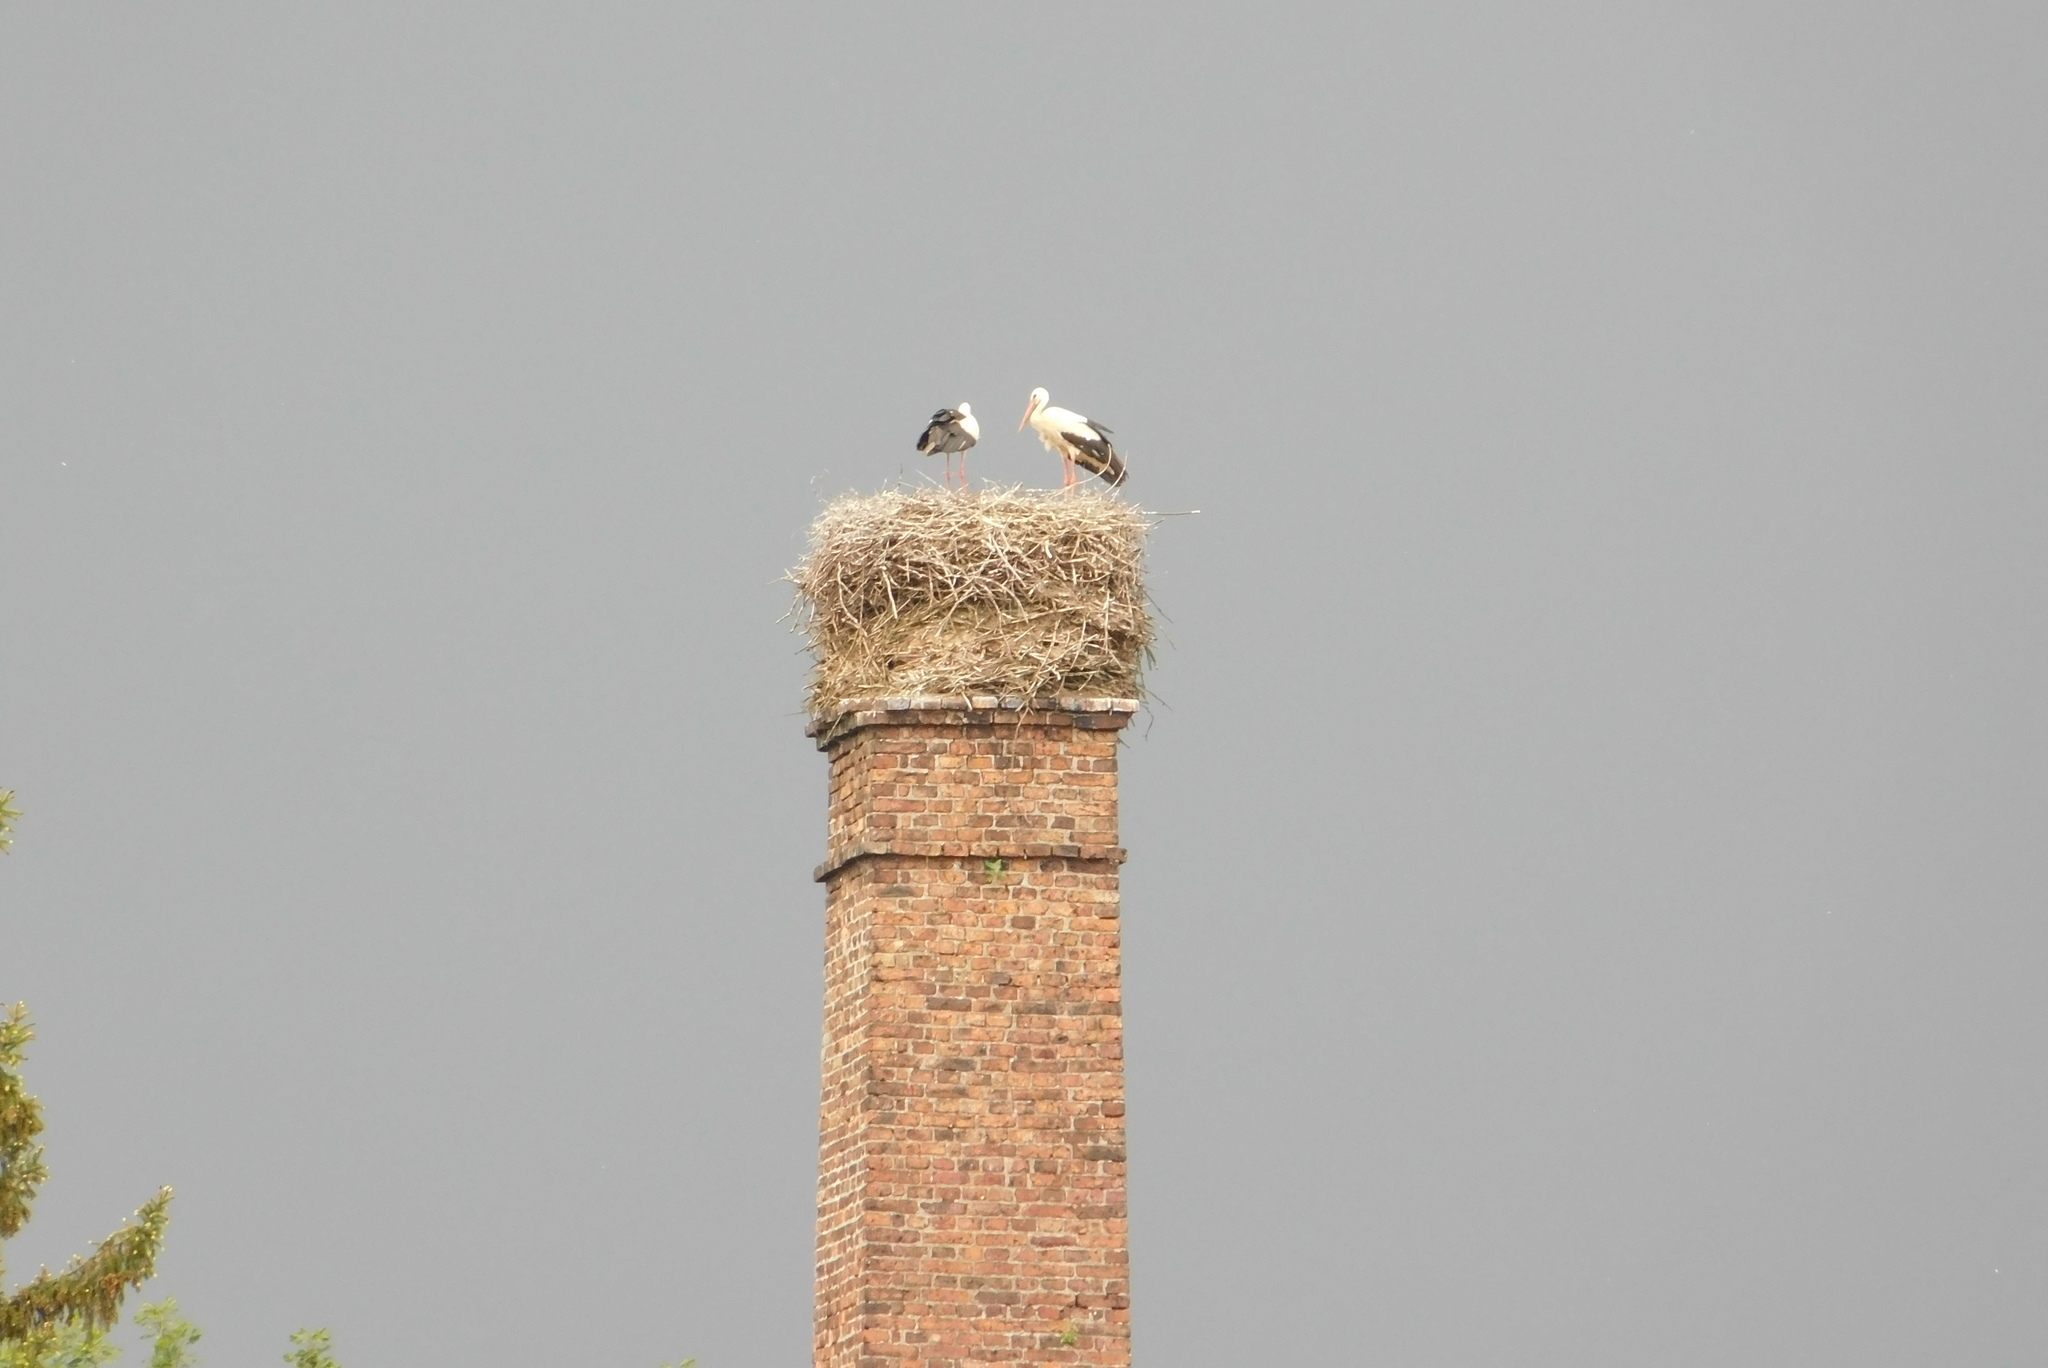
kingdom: Animalia
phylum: Chordata
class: Aves
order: Ciconiiformes
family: Ciconiidae
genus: Ciconia
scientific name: Ciconia ciconia
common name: White stork
